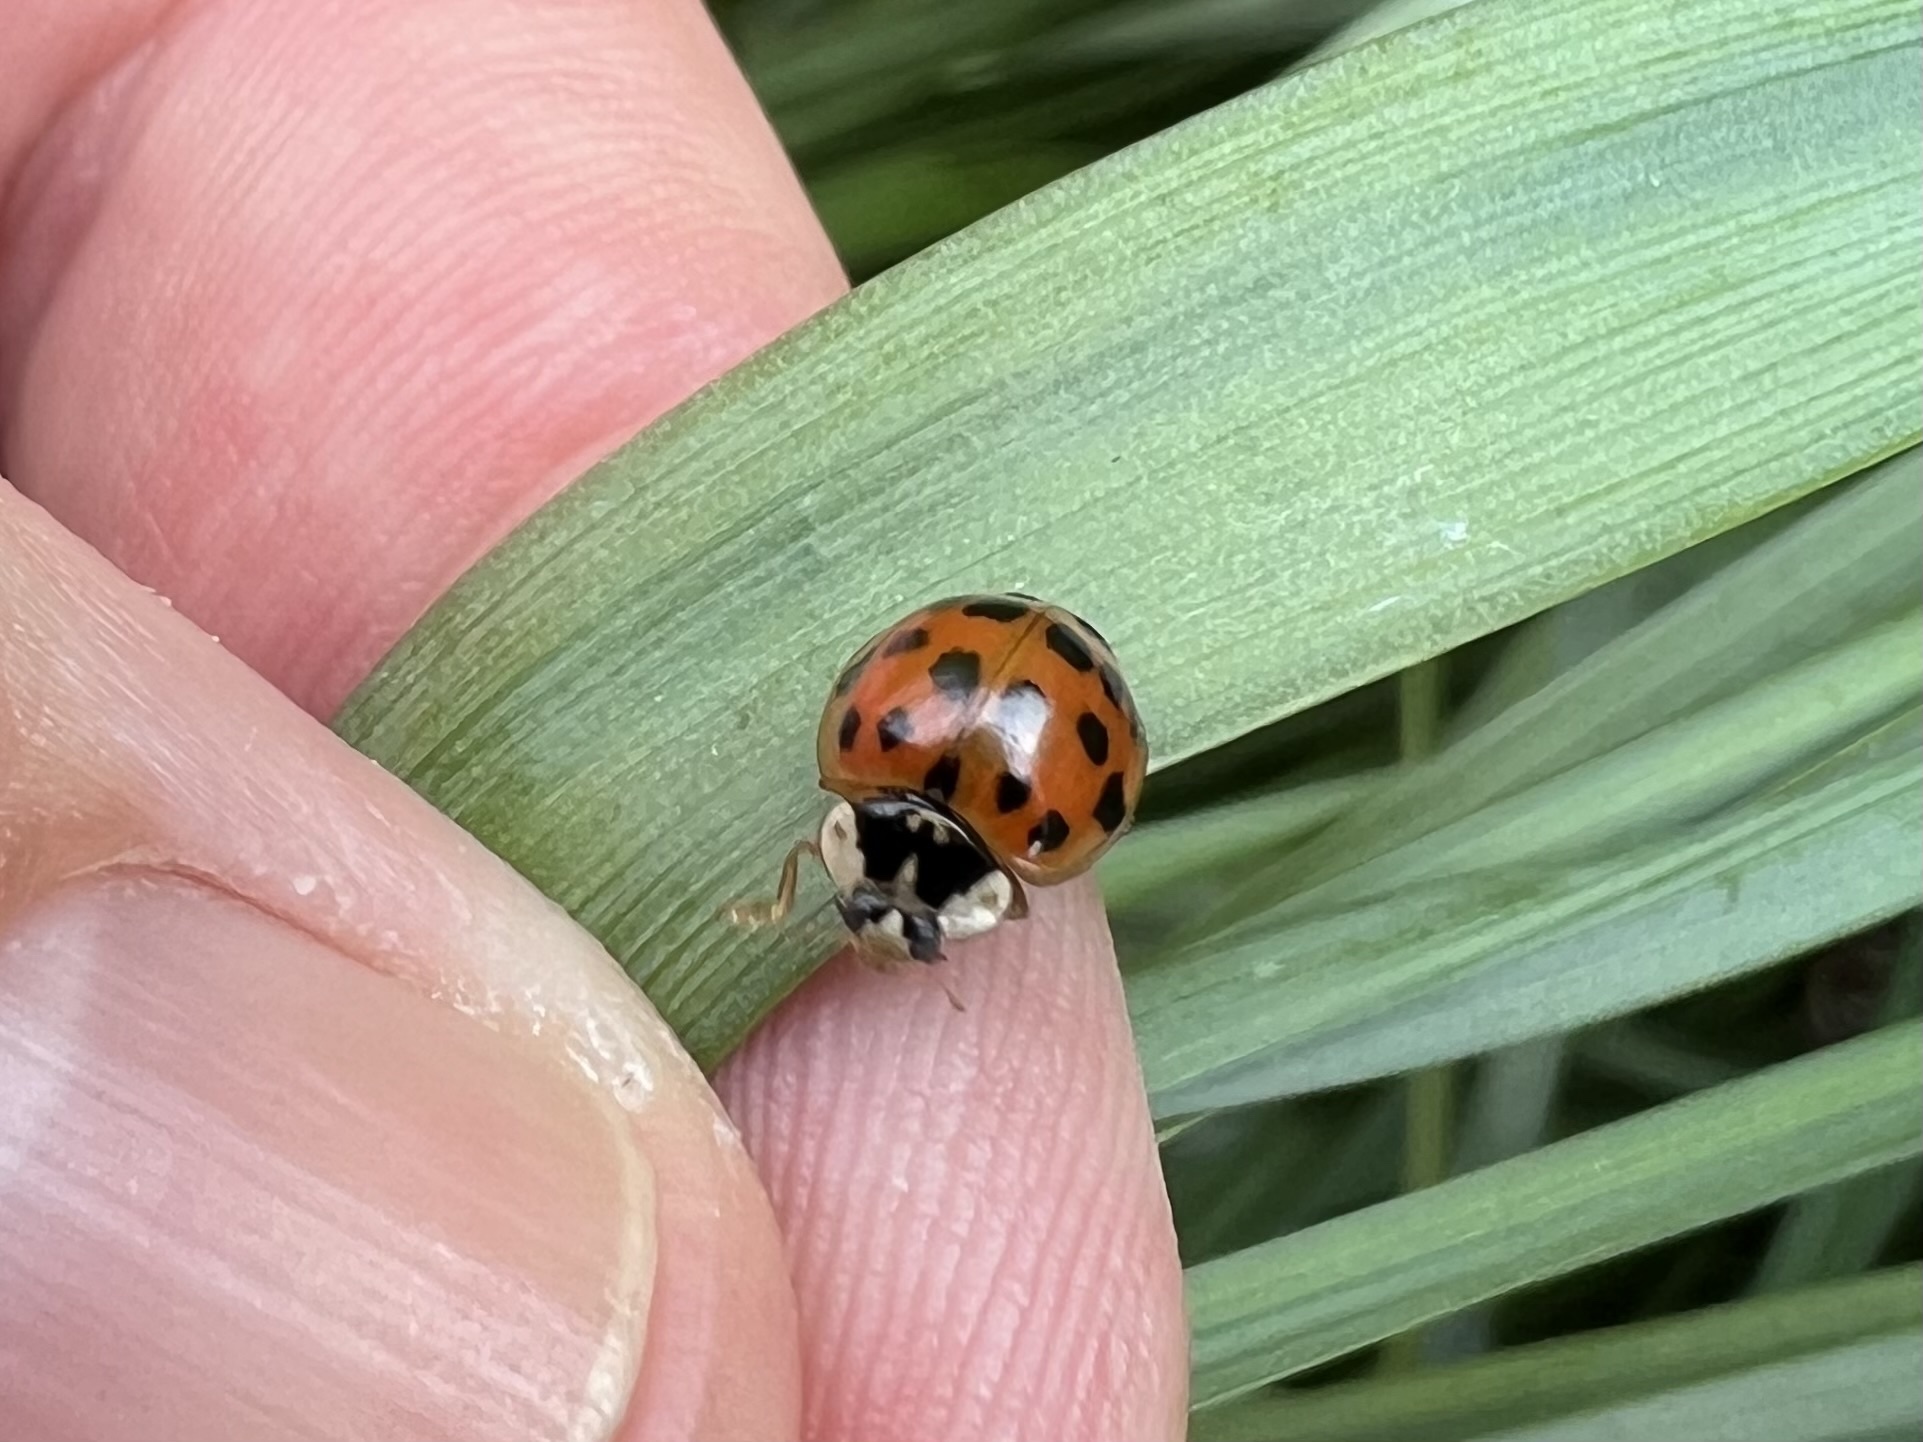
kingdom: Animalia
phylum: Arthropoda
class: Insecta
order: Coleoptera
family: Coccinellidae
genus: Harmonia
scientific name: Harmonia axyridis
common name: Harlequin ladybird
